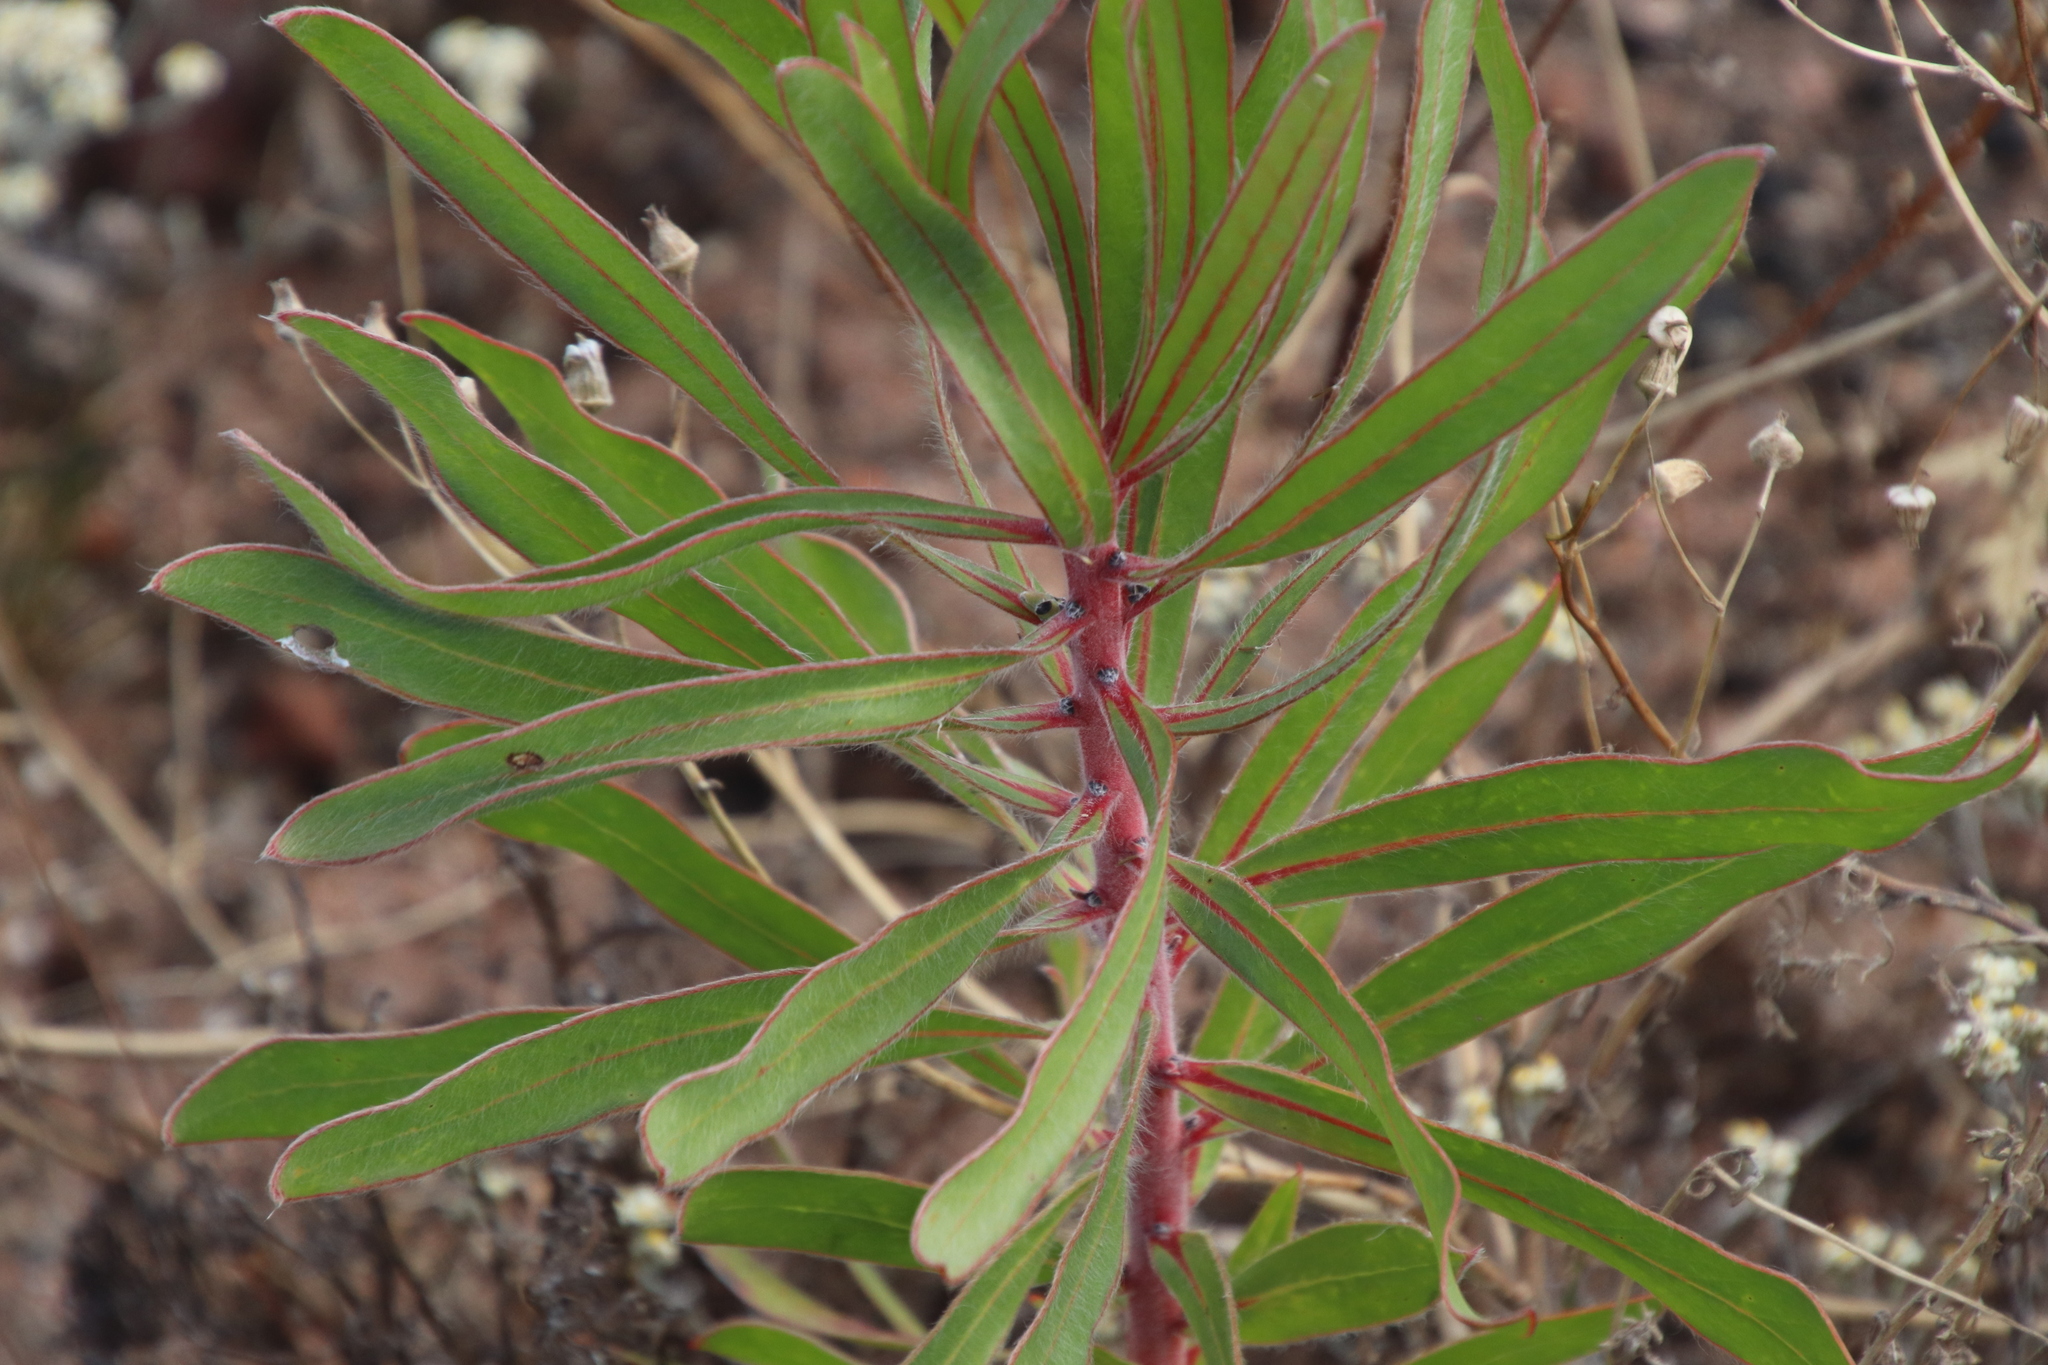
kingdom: Plantae
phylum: Tracheophyta
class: Magnoliopsida
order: Proteales
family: Proteaceae
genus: Protea
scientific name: Protea lepidocarpodendron
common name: Black-bearded protea
